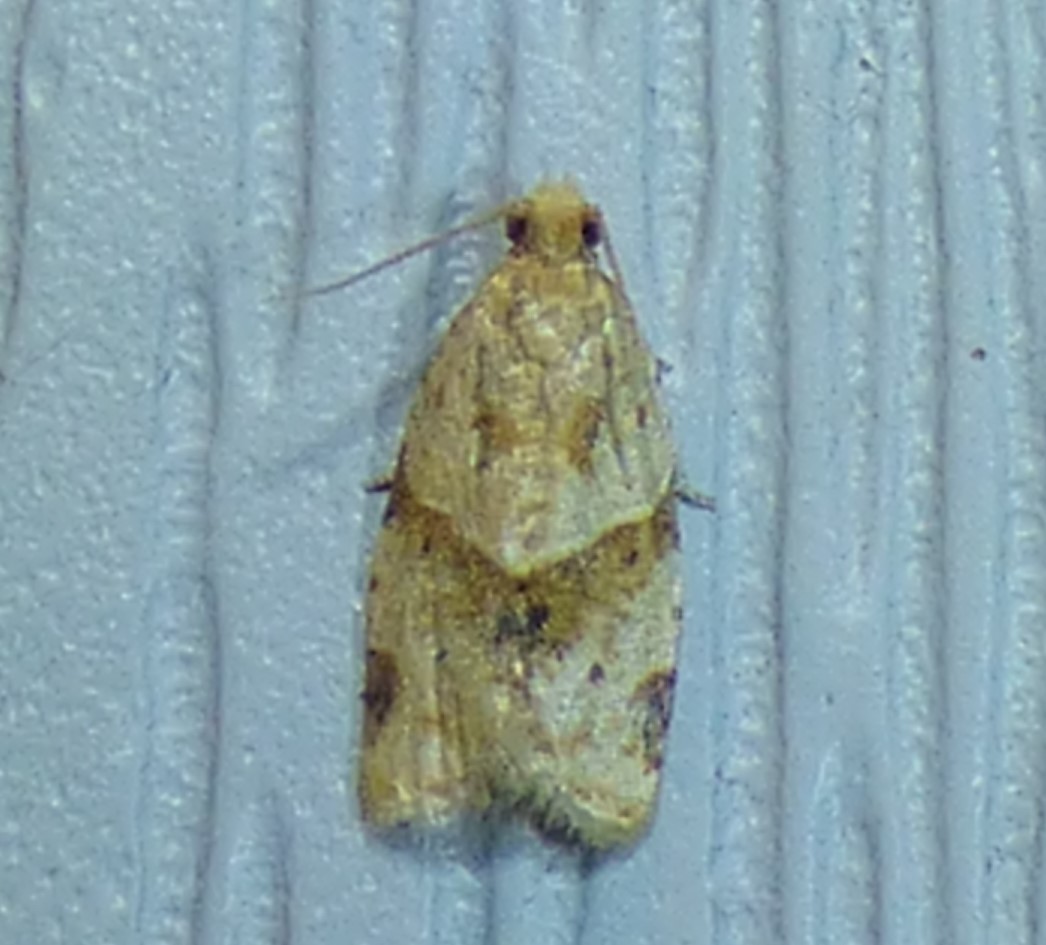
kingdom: Animalia
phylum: Arthropoda
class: Insecta
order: Lepidoptera
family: Tortricidae
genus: Clepsis
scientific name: Clepsis peritana
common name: Garden tortrix
